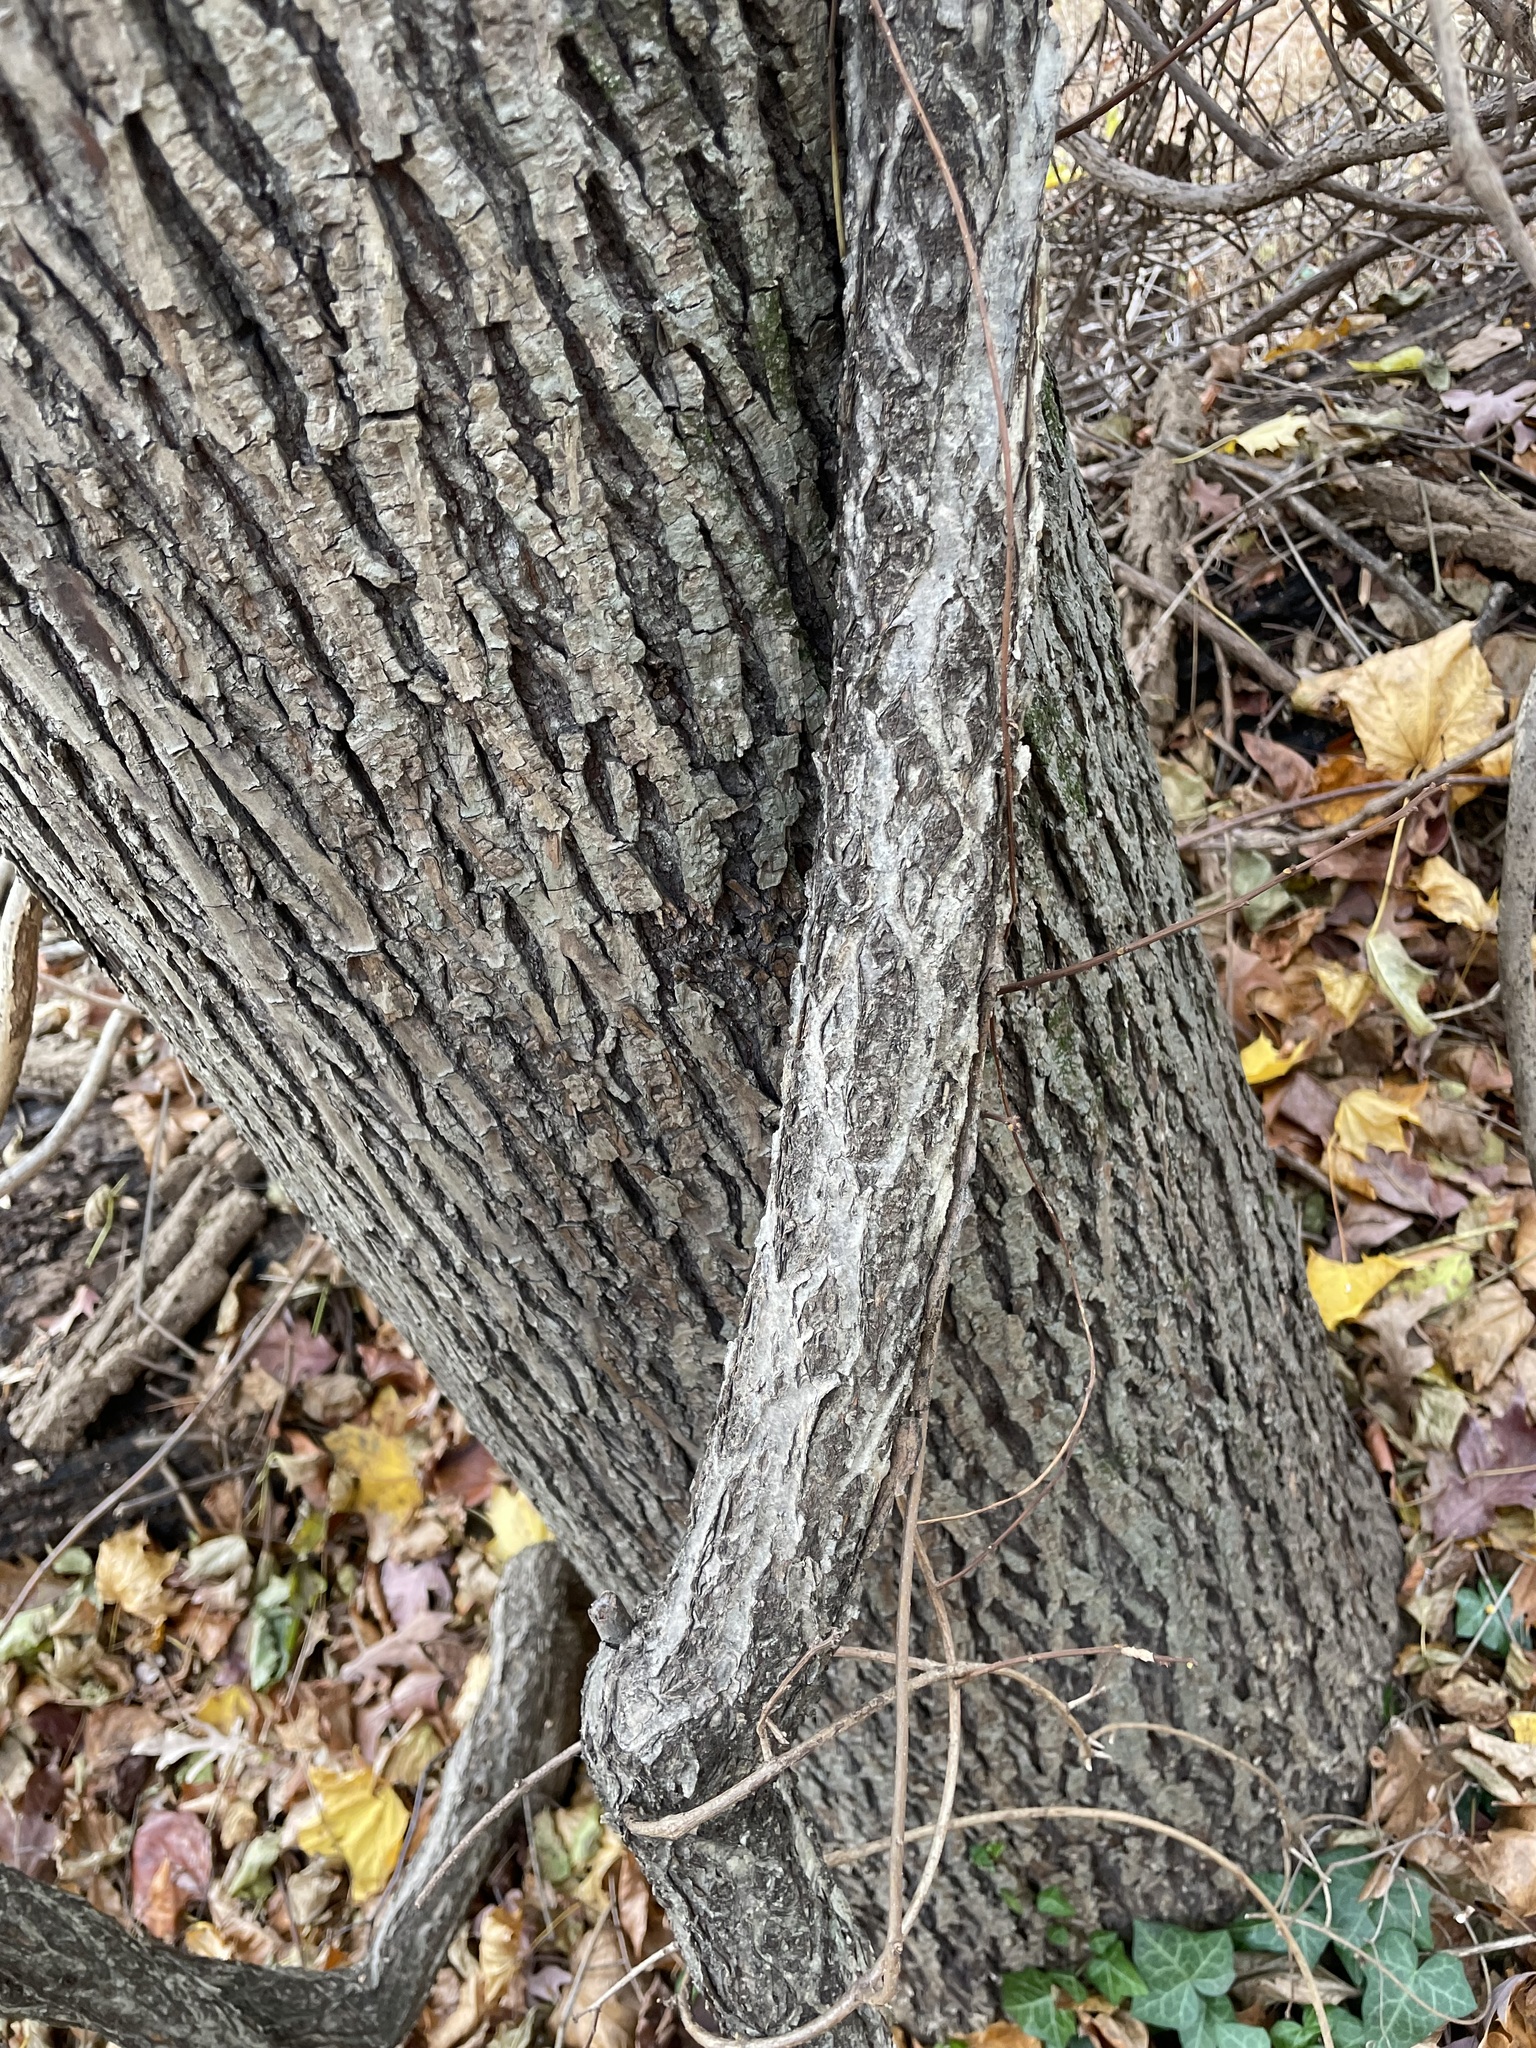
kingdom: Plantae
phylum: Tracheophyta
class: Magnoliopsida
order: Celastrales
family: Celastraceae
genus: Celastrus
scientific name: Celastrus orbiculatus
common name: Oriental bittersweet
